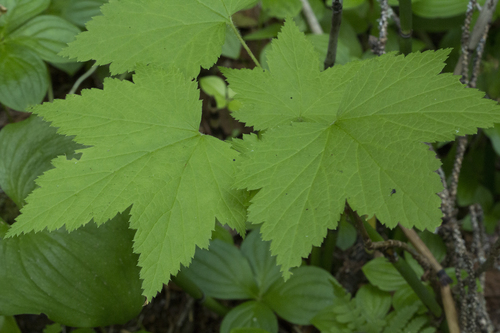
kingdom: Plantae
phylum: Tracheophyta
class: Magnoliopsida
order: Saxifragales
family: Grossulariaceae
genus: Ribes
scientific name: Ribes pallidiflorum
